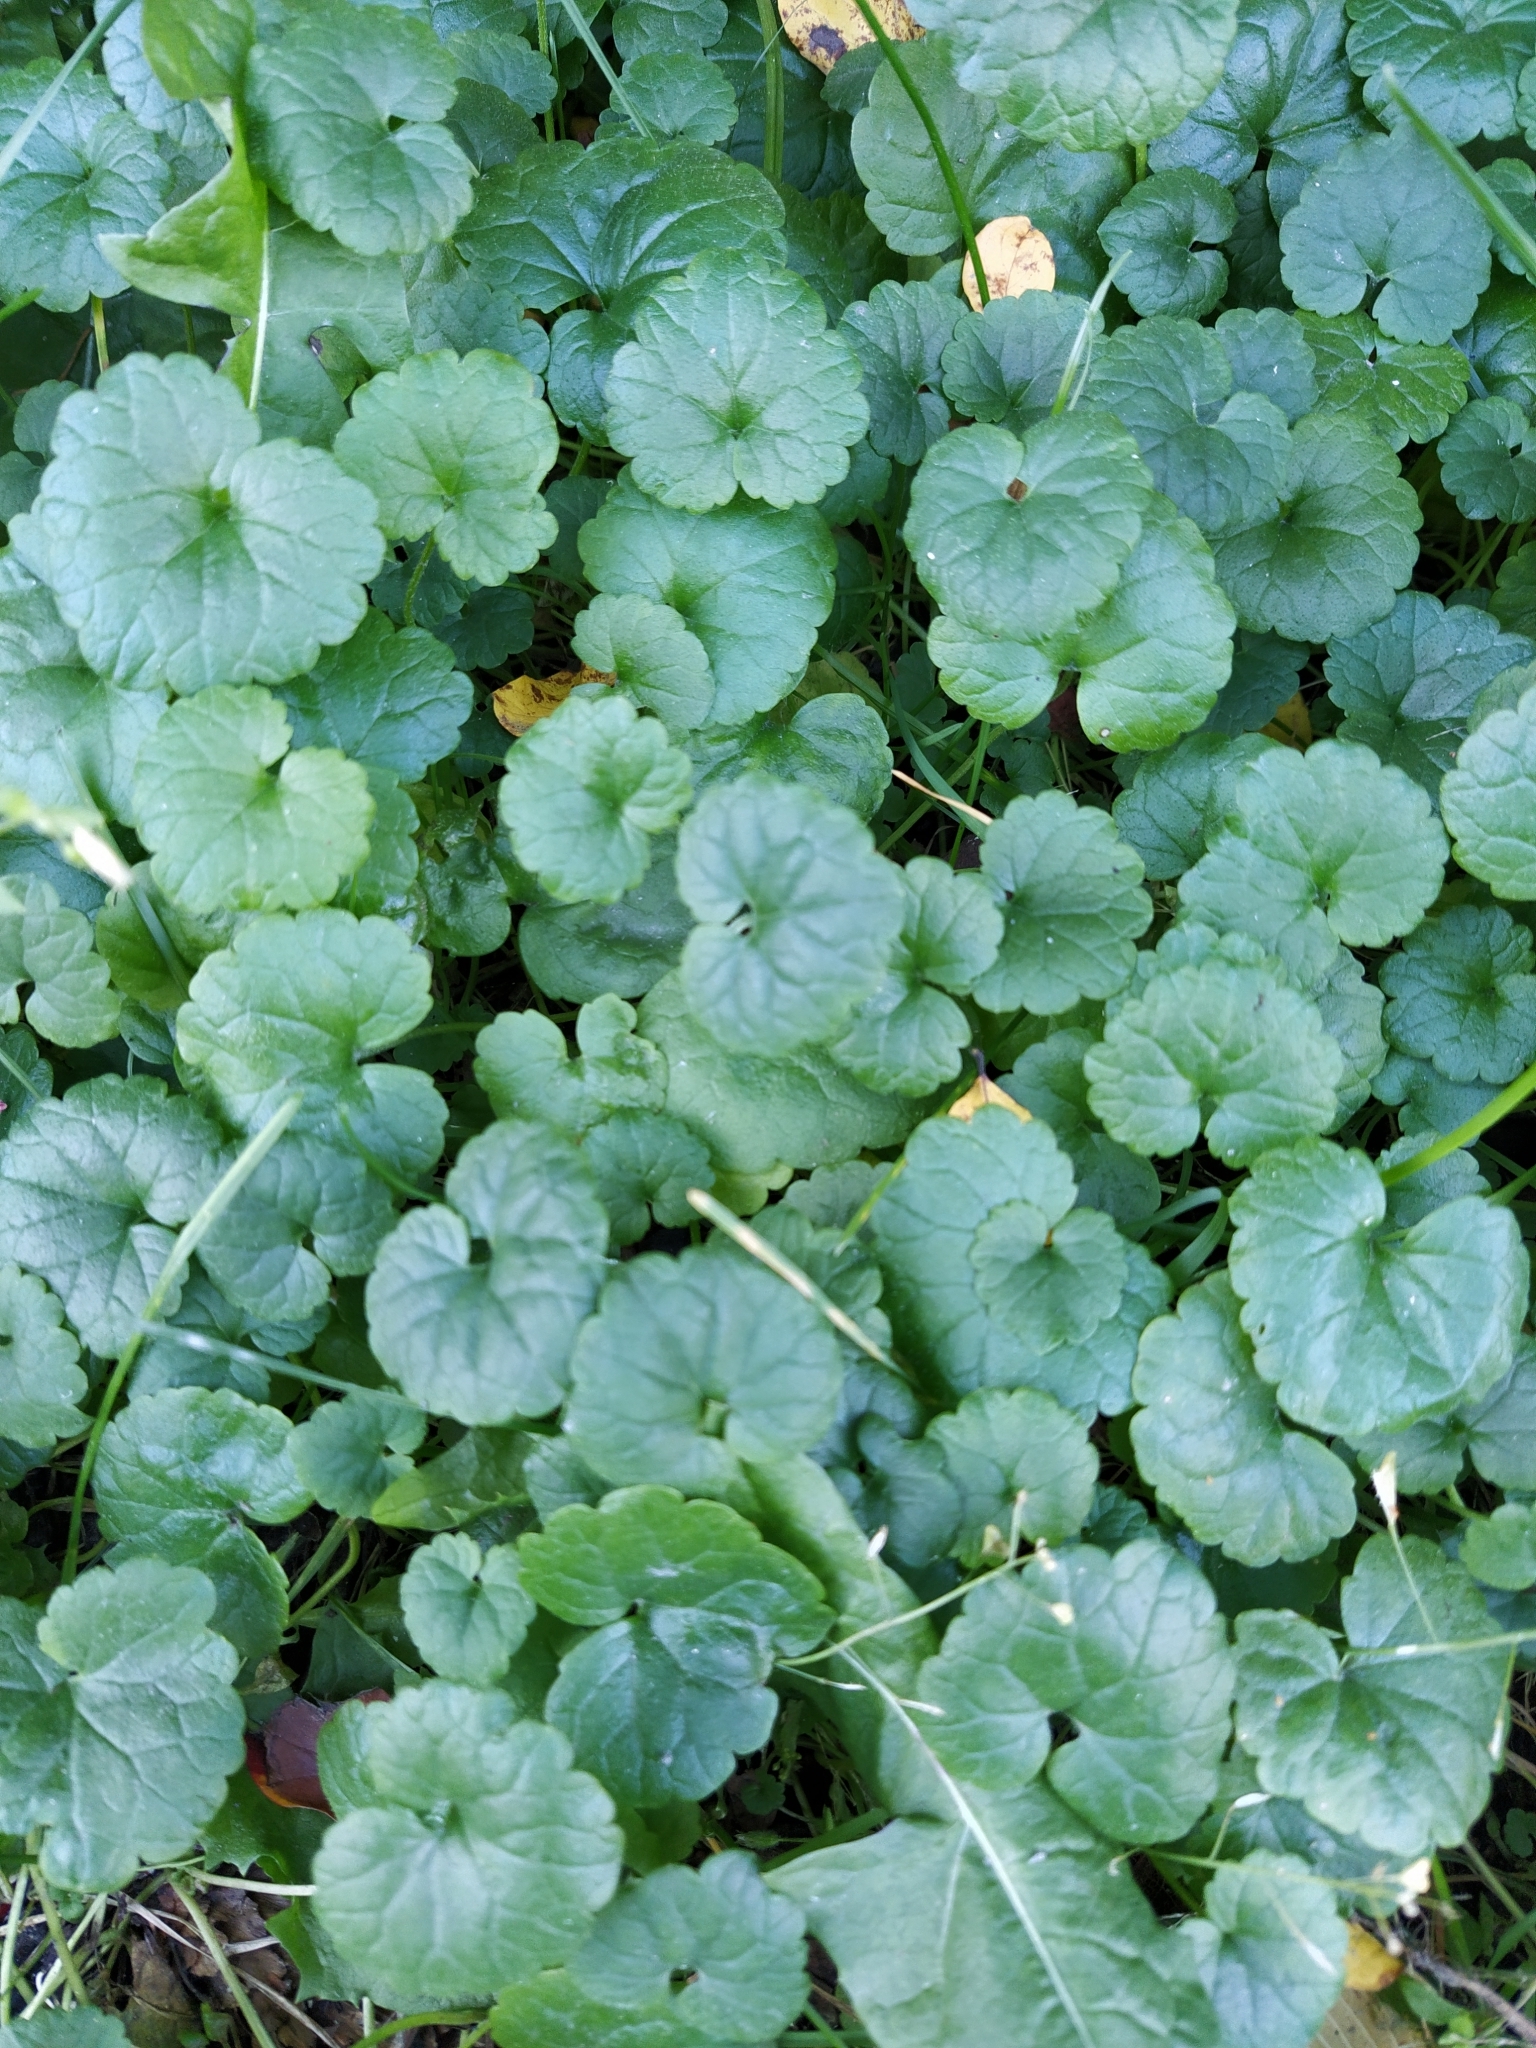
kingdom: Plantae
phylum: Tracheophyta
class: Magnoliopsida
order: Lamiales
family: Lamiaceae
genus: Glechoma
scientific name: Glechoma hederacea
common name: Ground ivy
